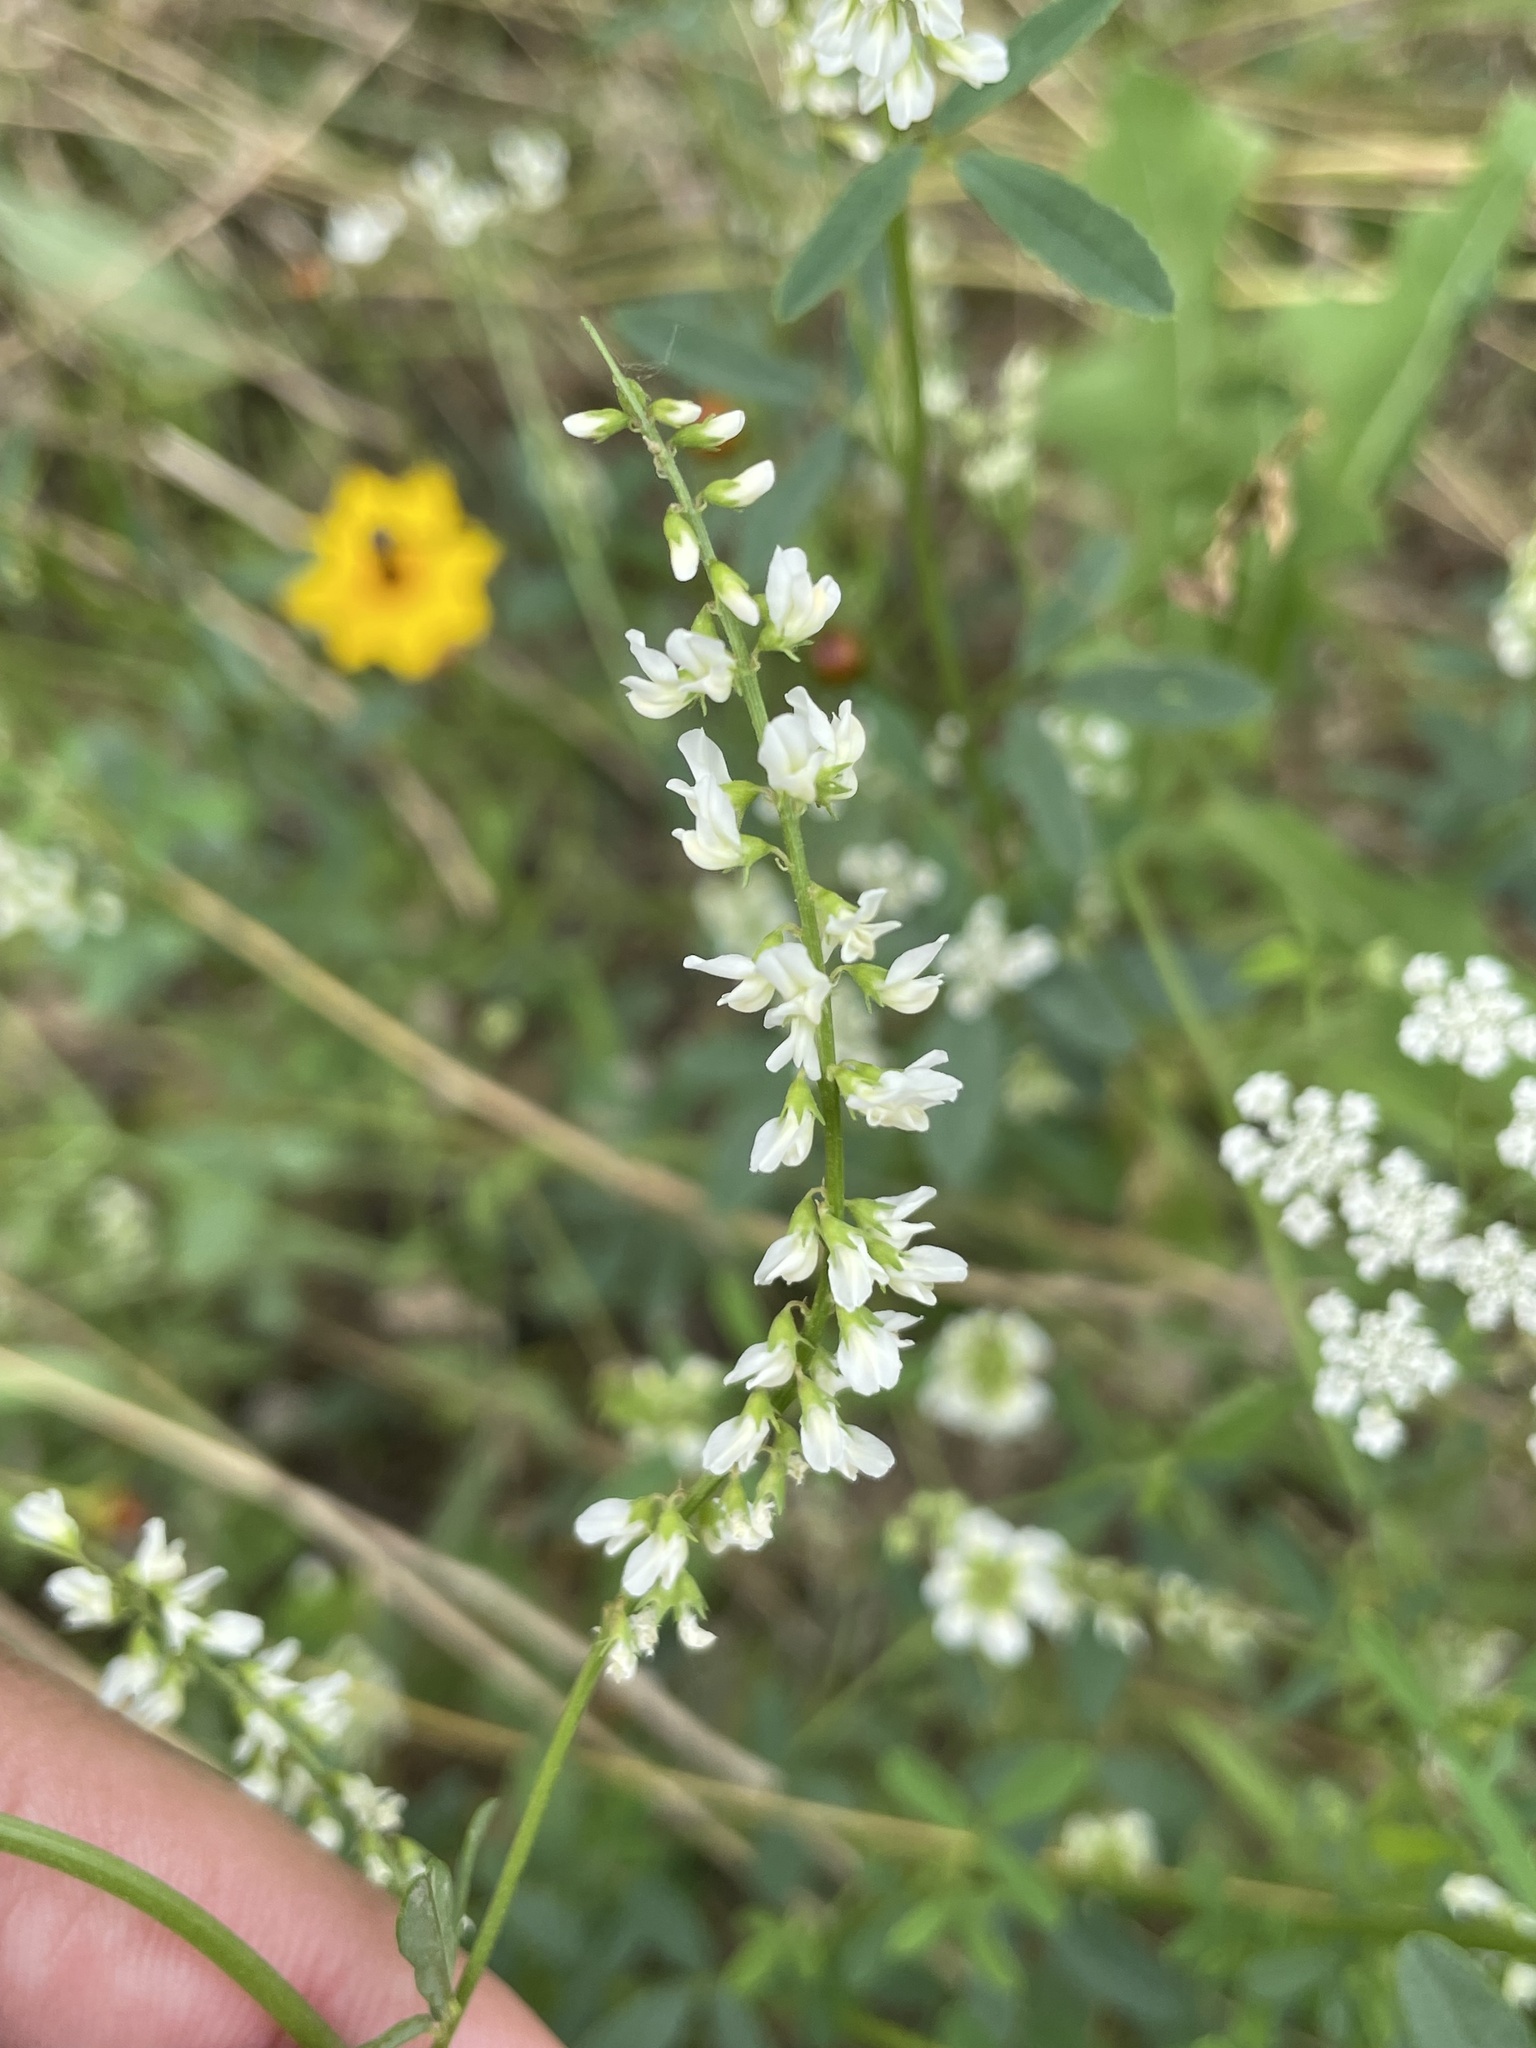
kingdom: Plantae
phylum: Tracheophyta
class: Magnoliopsida
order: Fabales
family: Fabaceae
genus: Melilotus
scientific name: Melilotus albus
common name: White melilot
